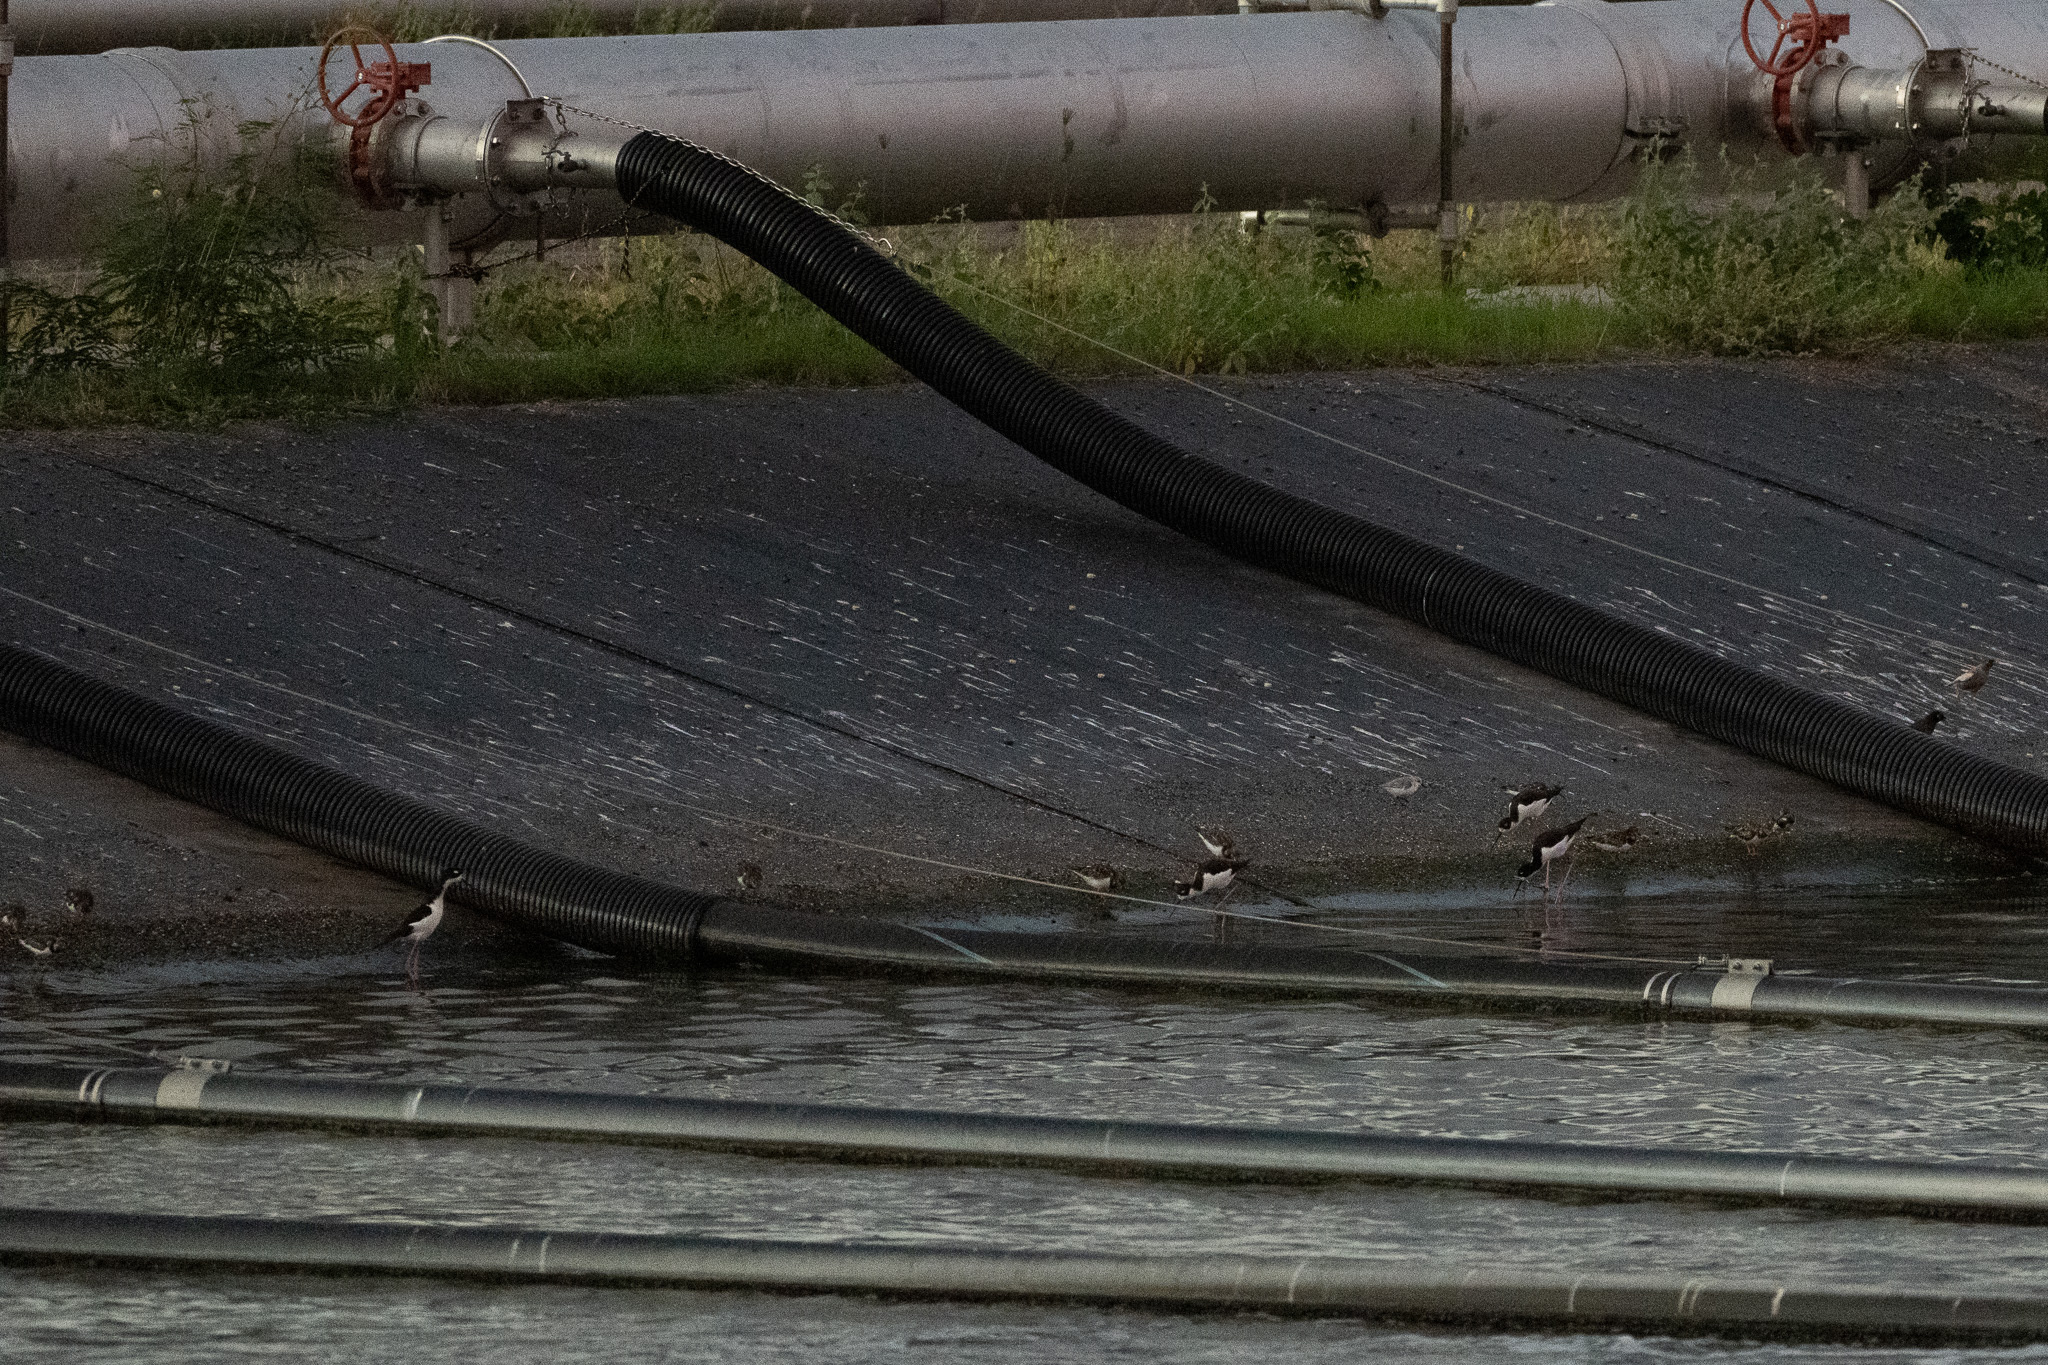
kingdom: Animalia
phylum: Chordata
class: Aves
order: Charadriiformes
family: Scolopacidae
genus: Arenaria
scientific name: Arenaria interpres
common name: Ruddy turnstone
